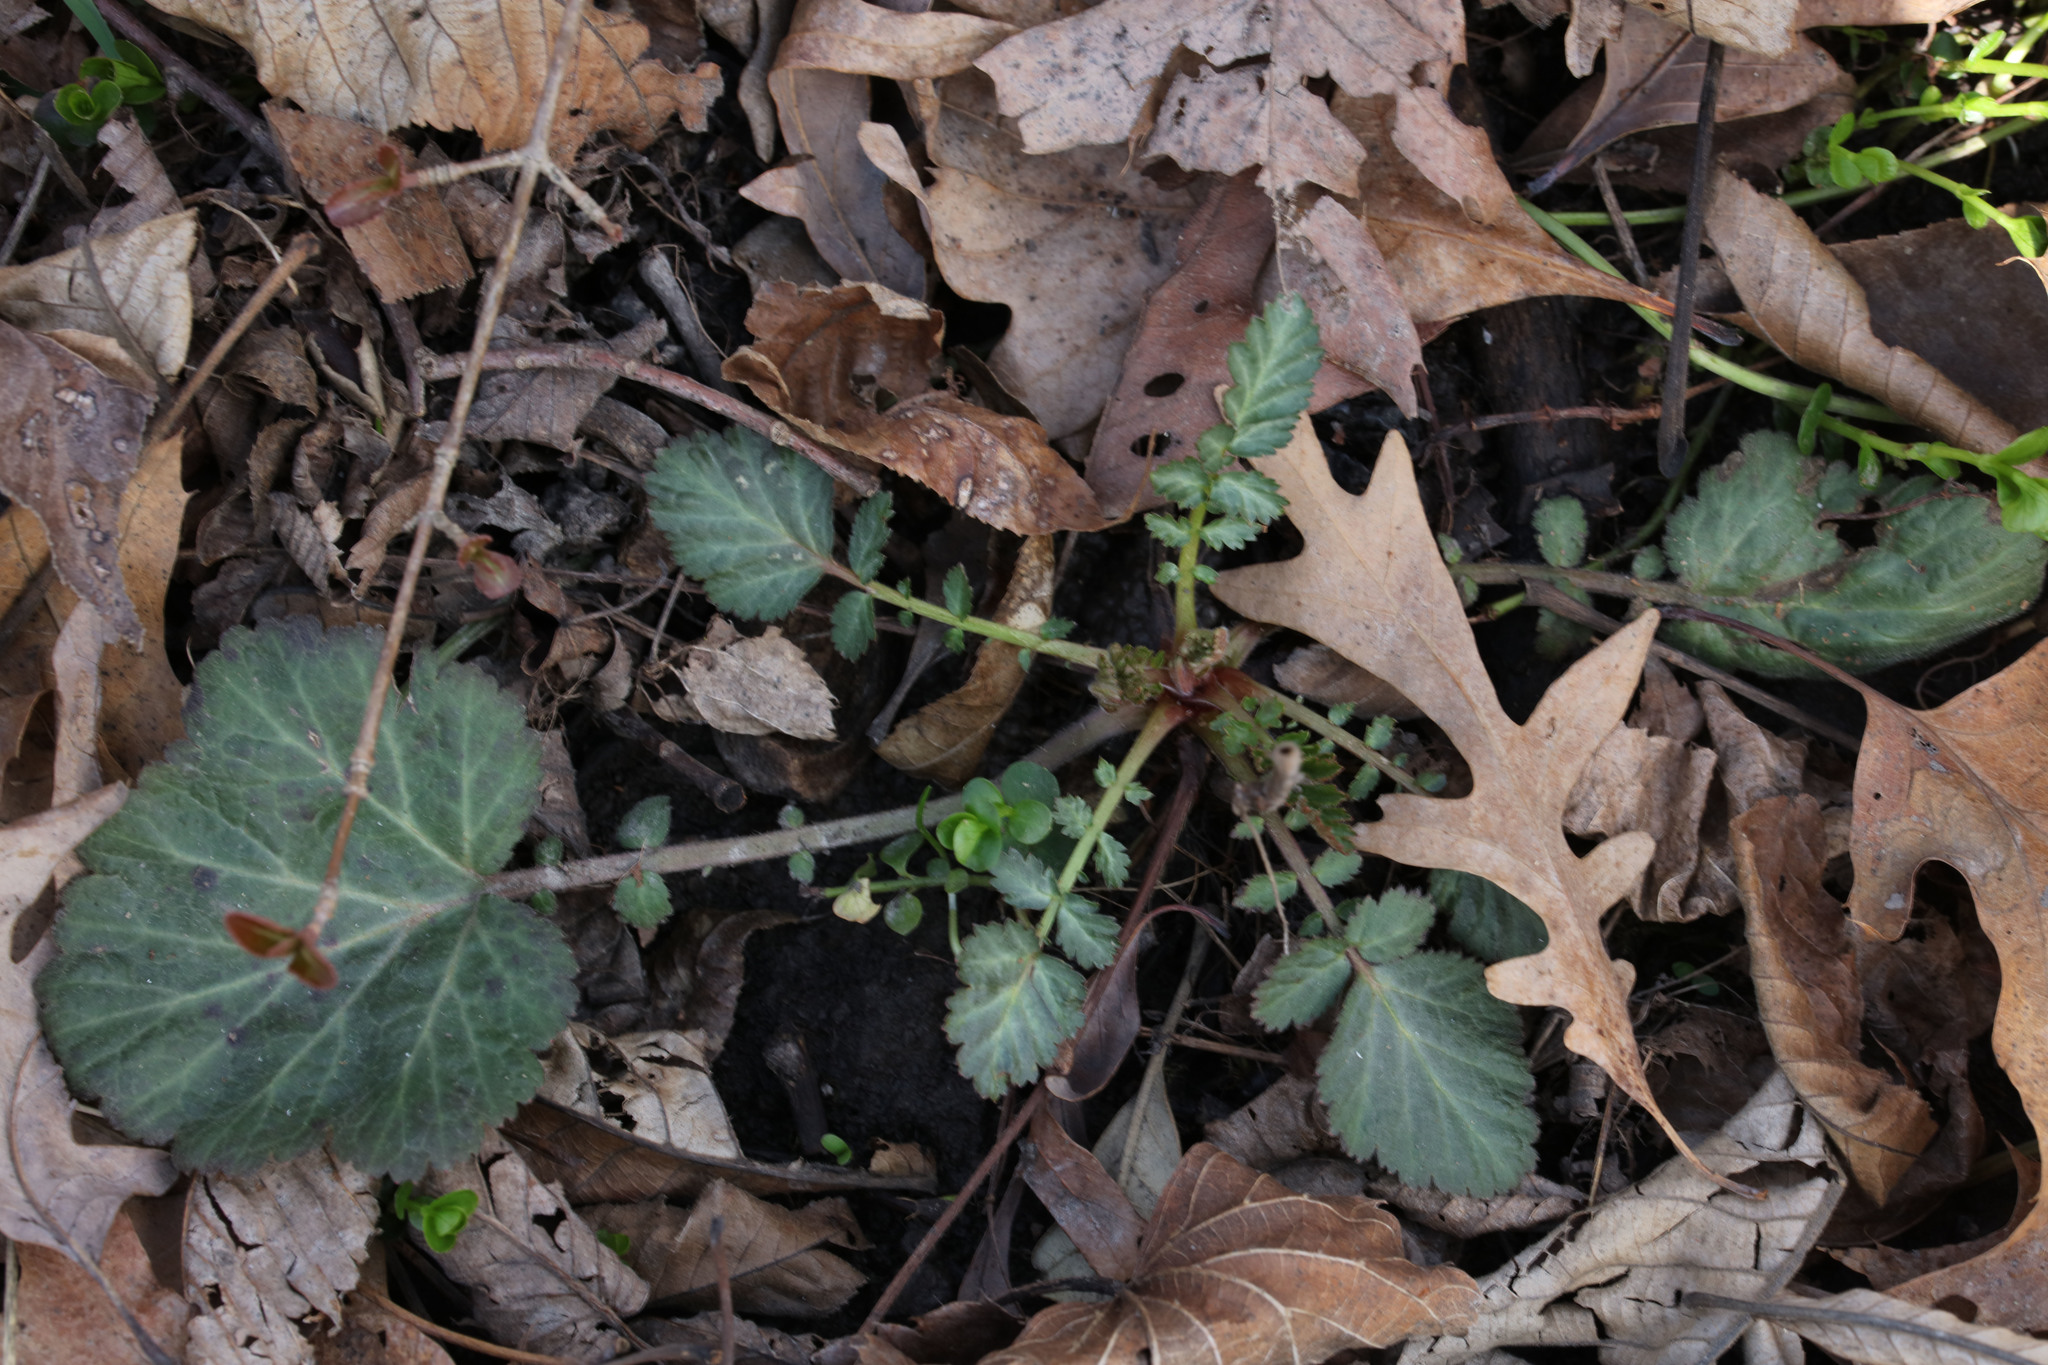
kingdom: Plantae
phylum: Tracheophyta
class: Magnoliopsida
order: Rosales
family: Rosaceae
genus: Geum
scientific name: Geum canadense
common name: White avens
